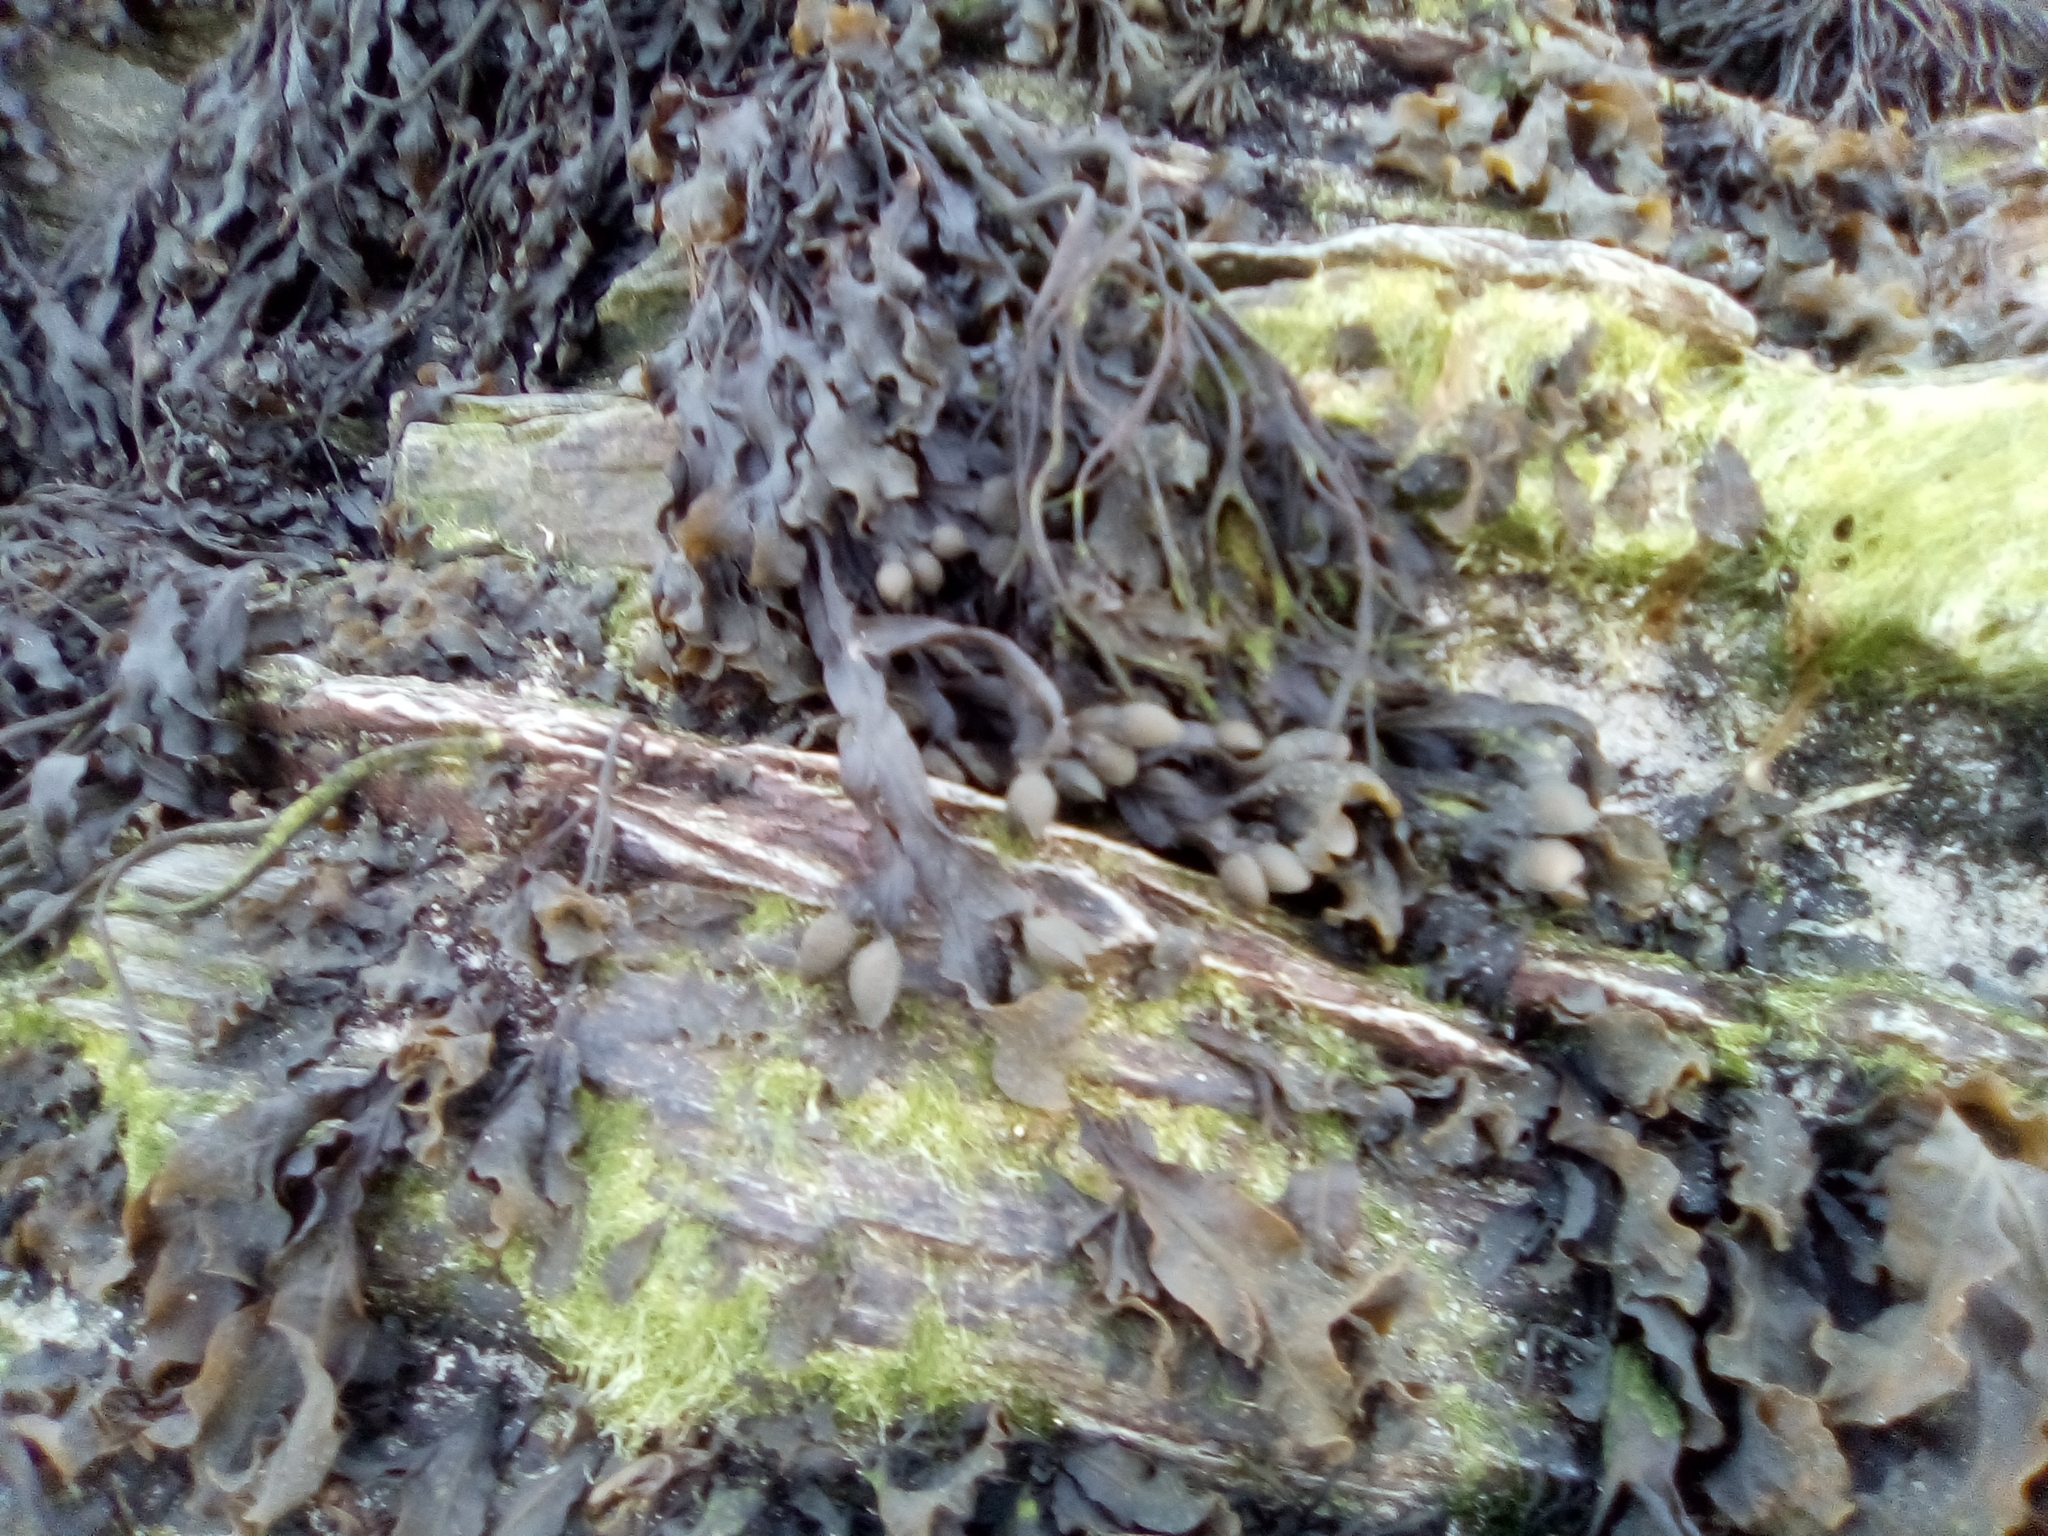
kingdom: Chromista
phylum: Ochrophyta
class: Phaeophyceae
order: Fucales
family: Fucaceae
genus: Fucus
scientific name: Fucus vesiculosus
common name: Bladder wrack
